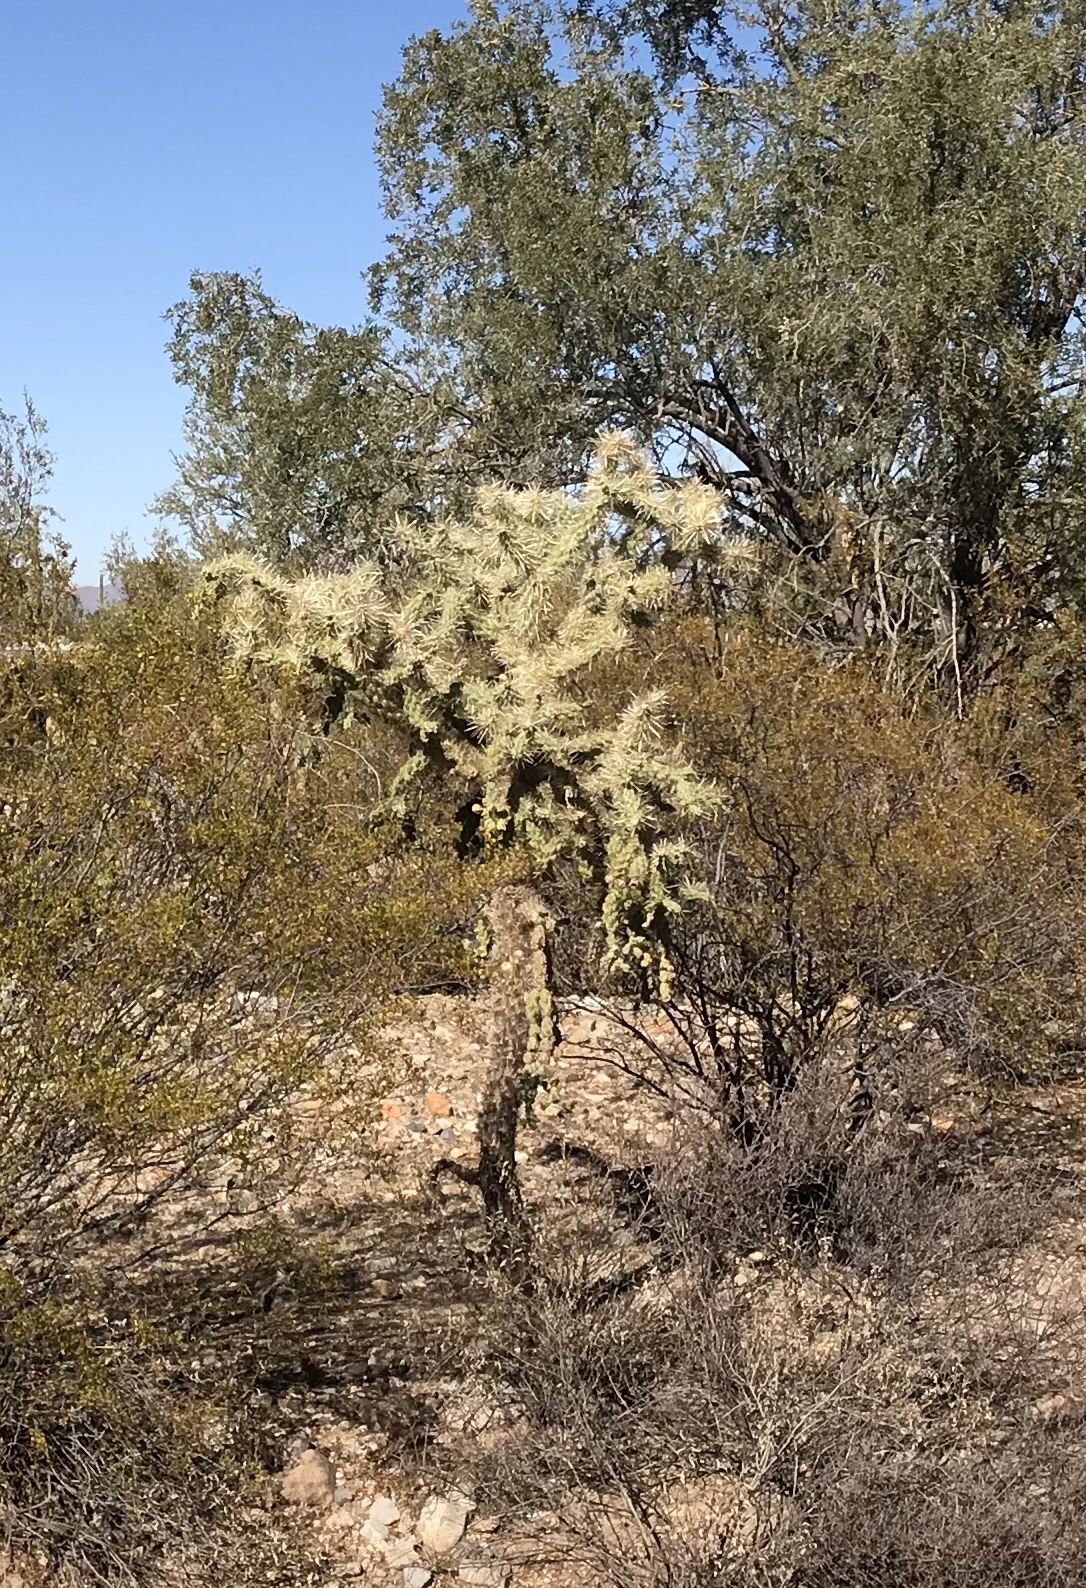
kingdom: Plantae
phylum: Tracheophyta
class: Magnoliopsida
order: Caryophyllales
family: Cactaceae
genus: Cylindropuntia
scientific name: Cylindropuntia fulgida
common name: Jumping cholla
